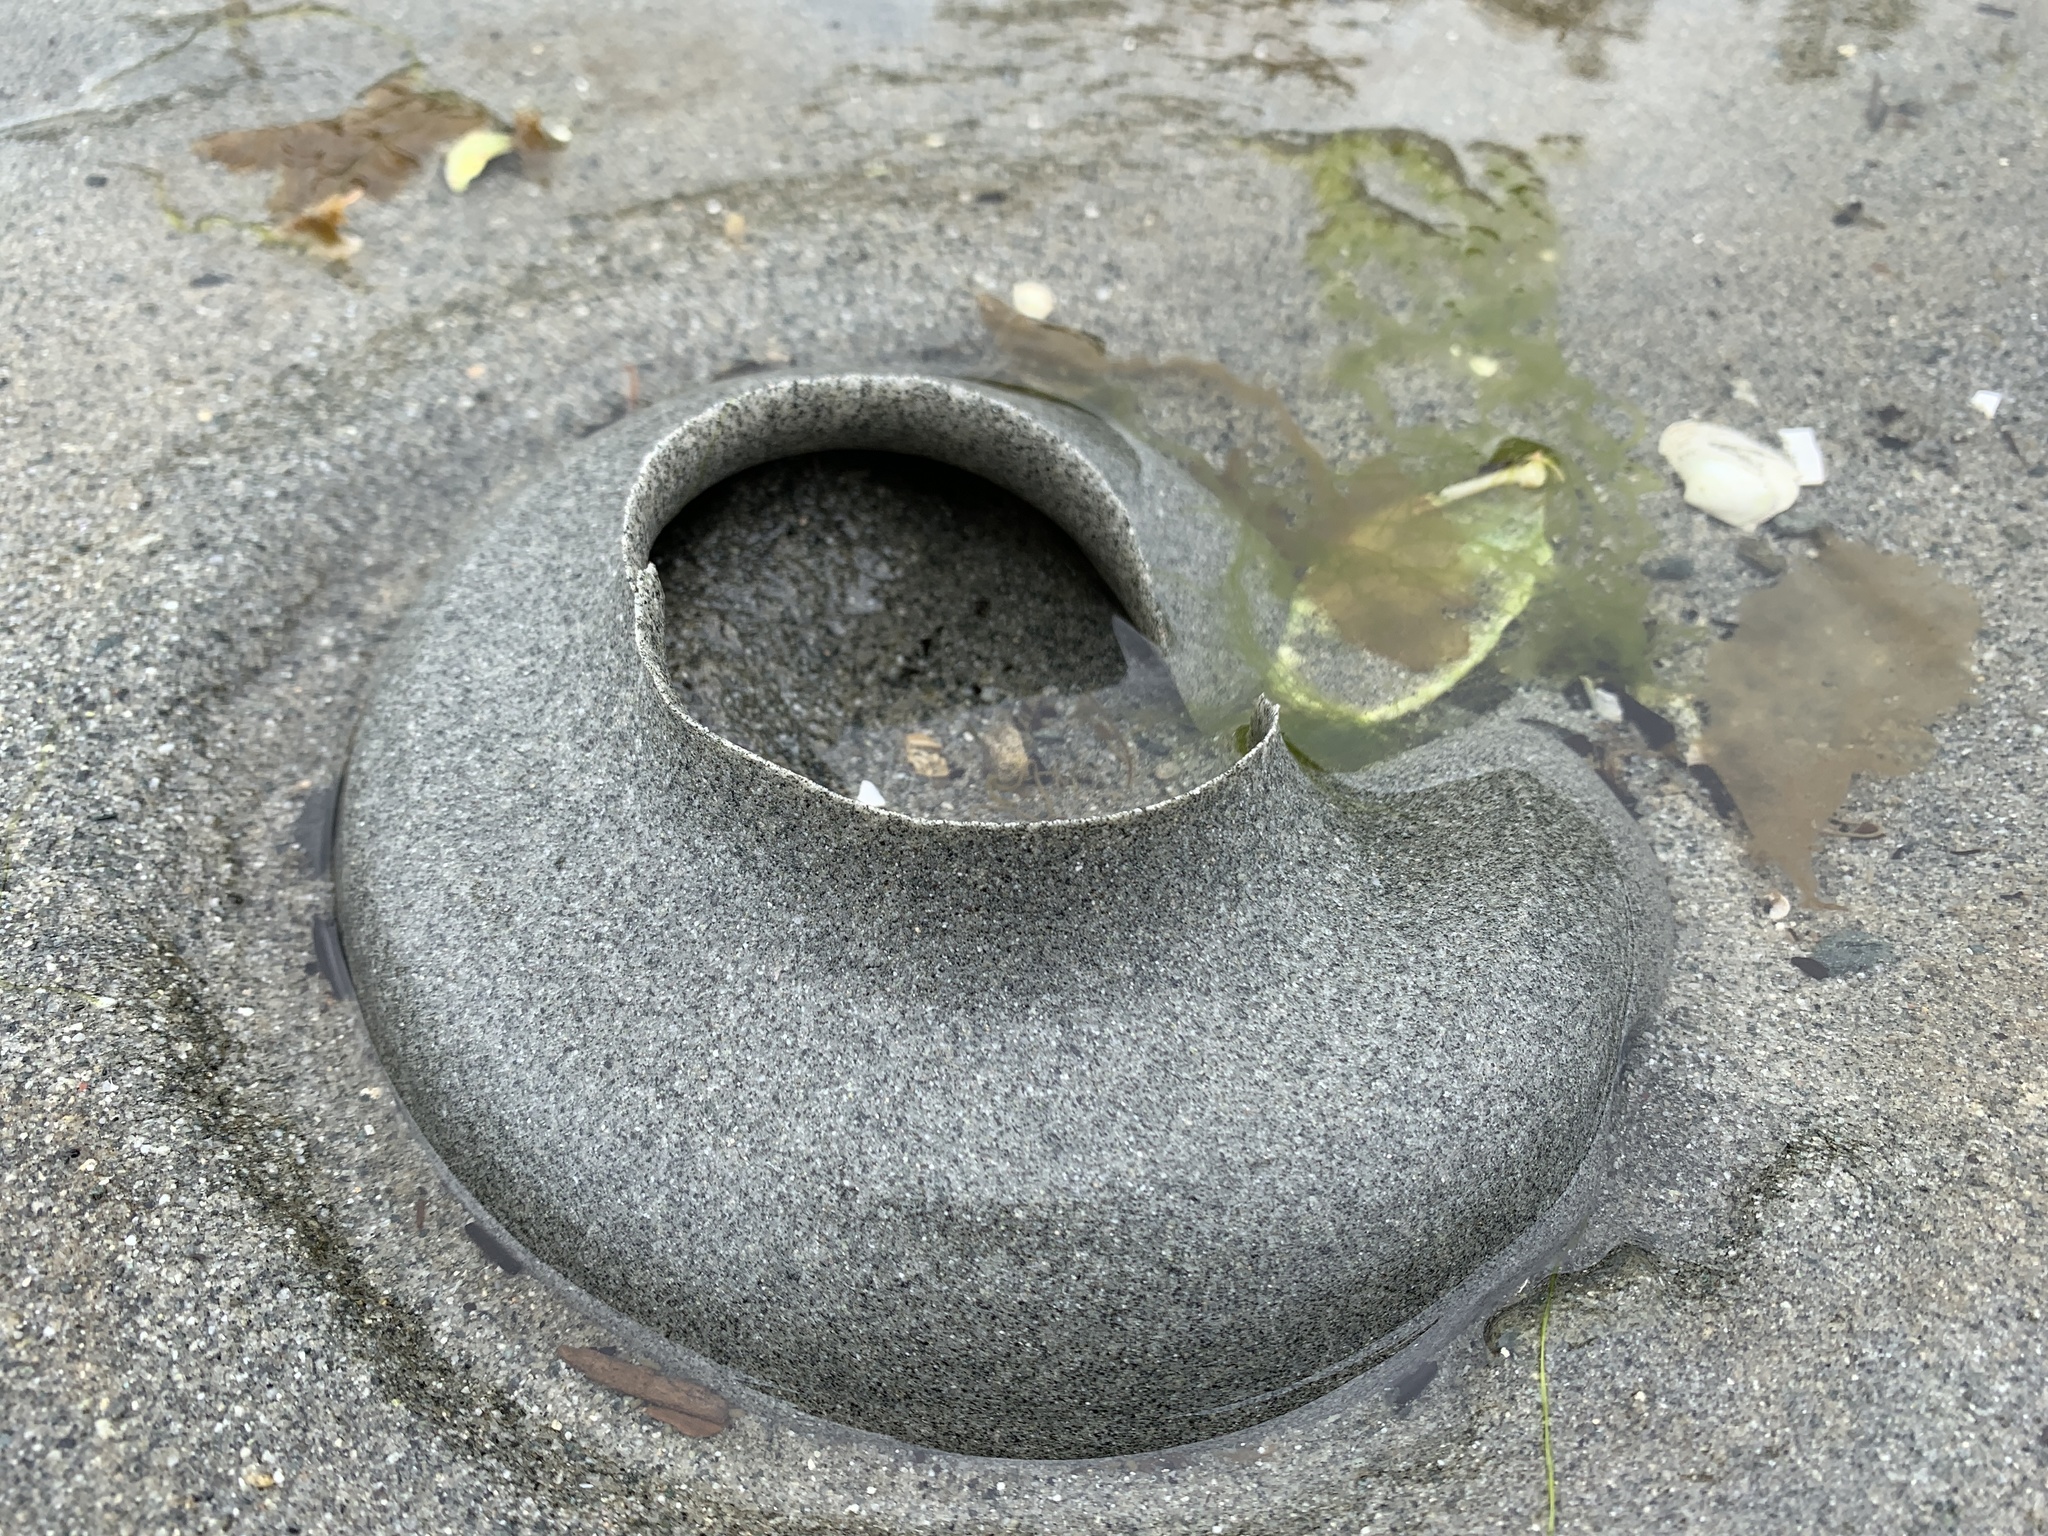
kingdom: Animalia
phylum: Mollusca
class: Gastropoda
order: Littorinimorpha
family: Naticidae
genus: Neverita
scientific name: Neverita lewisii
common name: Lewis' moonsnail
